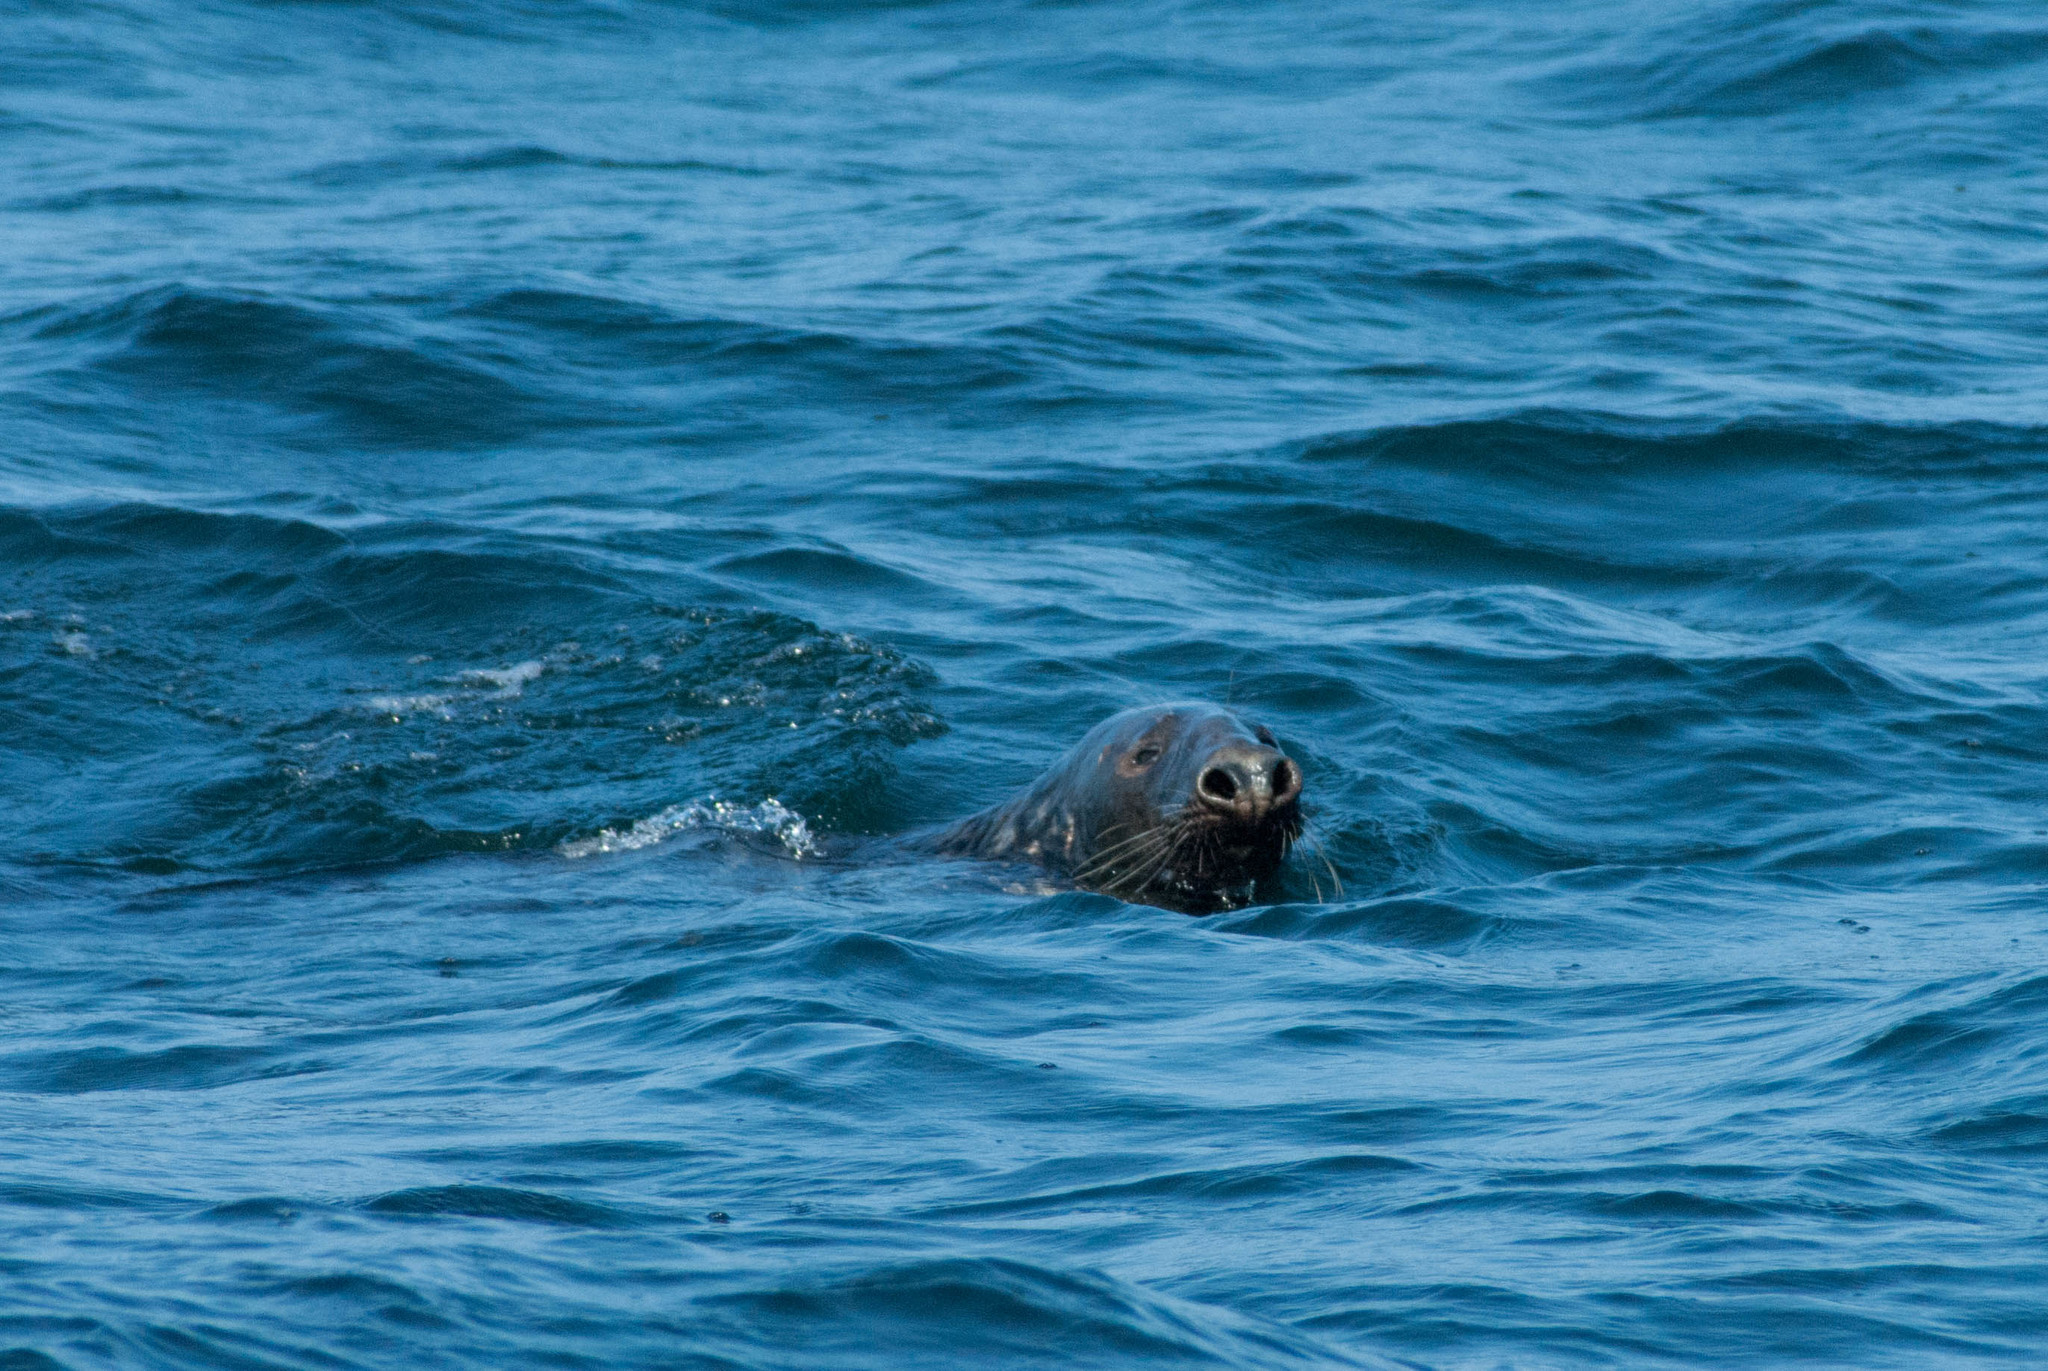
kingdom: Animalia
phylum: Chordata
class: Mammalia
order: Carnivora
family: Phocidae
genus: Halichoerus
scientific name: Halichoerus grypus
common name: Grey seal
